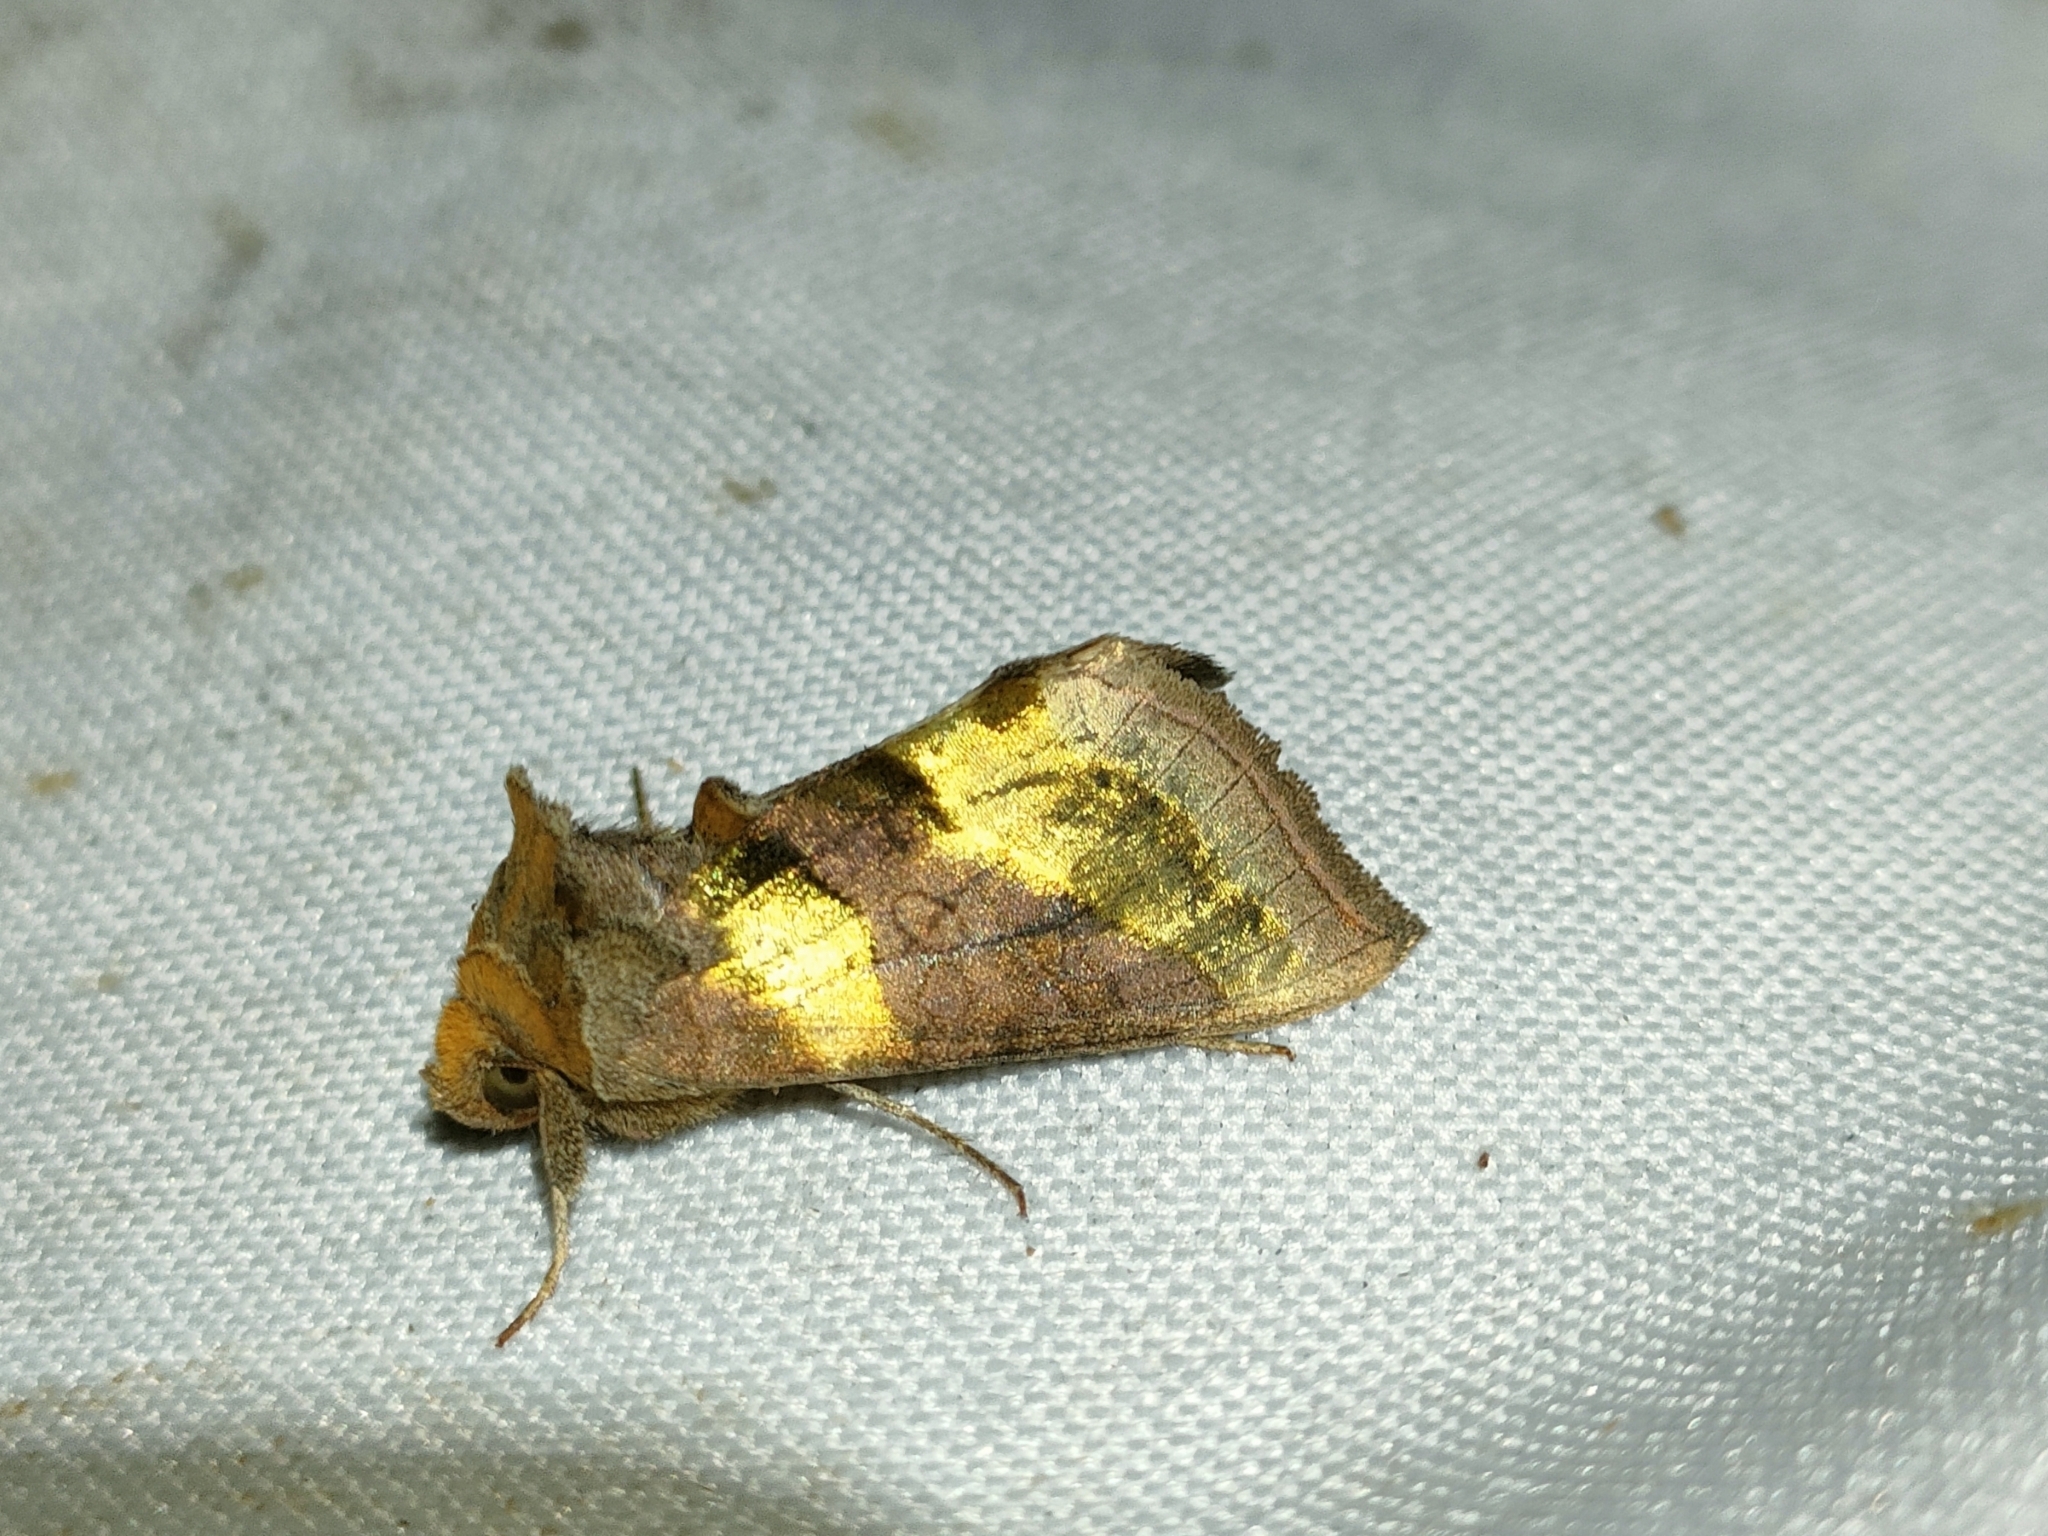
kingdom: Animalia
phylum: Arthropoda
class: Insecta
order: Lepidoptera
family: Noctuidae
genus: Diachrysia
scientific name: Diachrysia chrysitis
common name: Burnished brass
